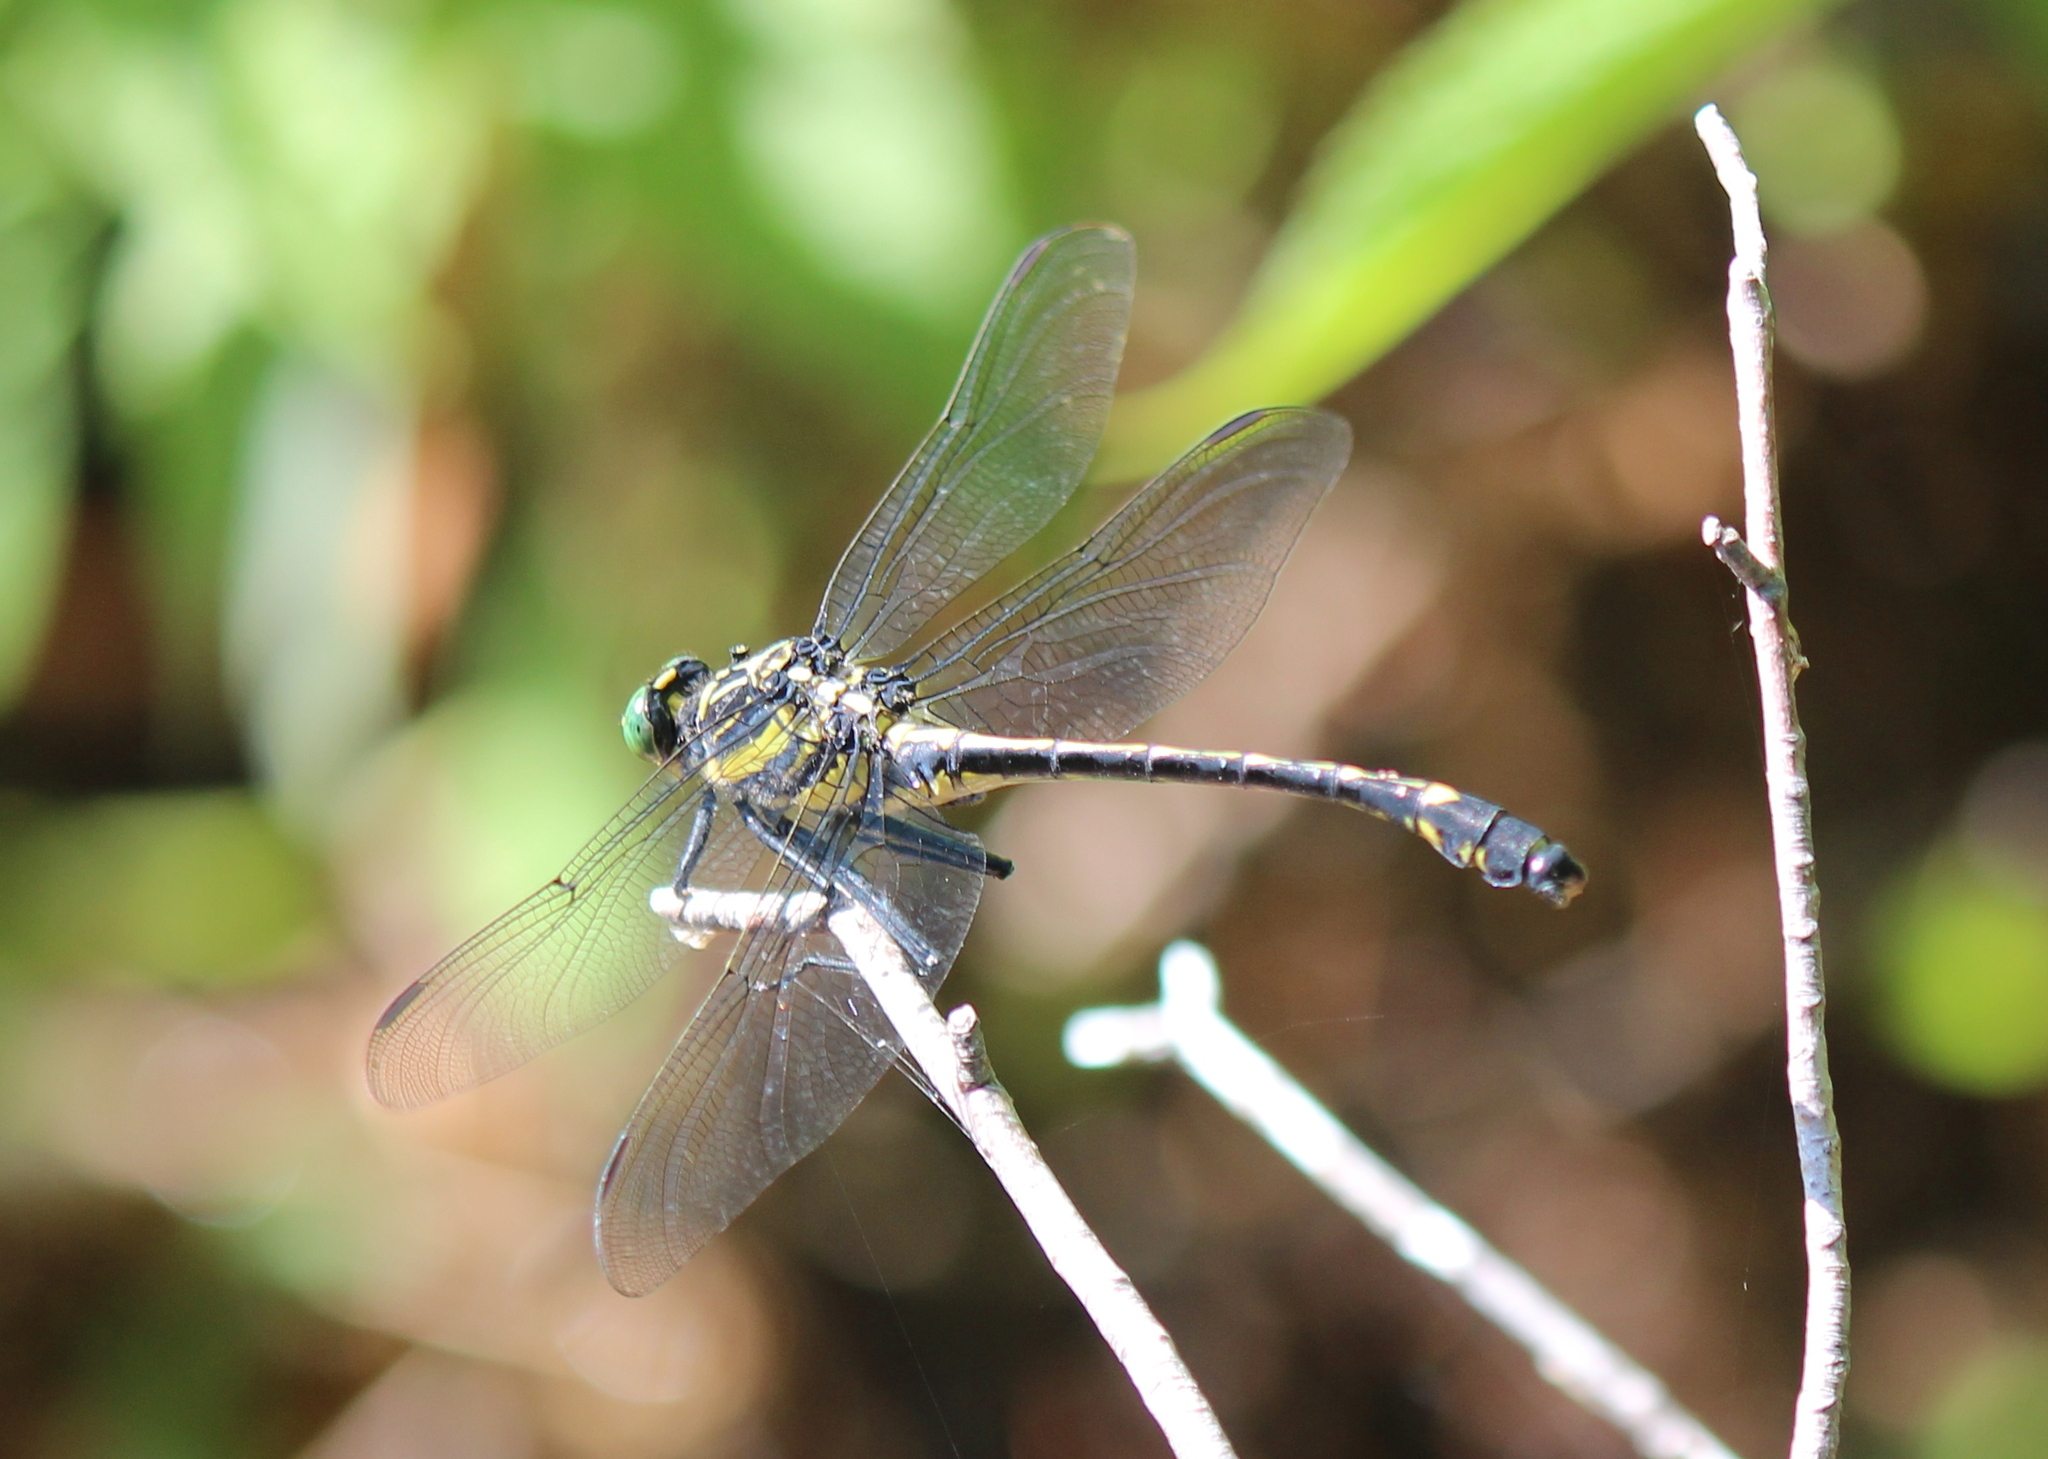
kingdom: Animalia
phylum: Arthropoda
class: Insecta
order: Odonata
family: Gomphidae
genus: Hagenius
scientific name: Hagenius brevistylus
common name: Dragonhunter
